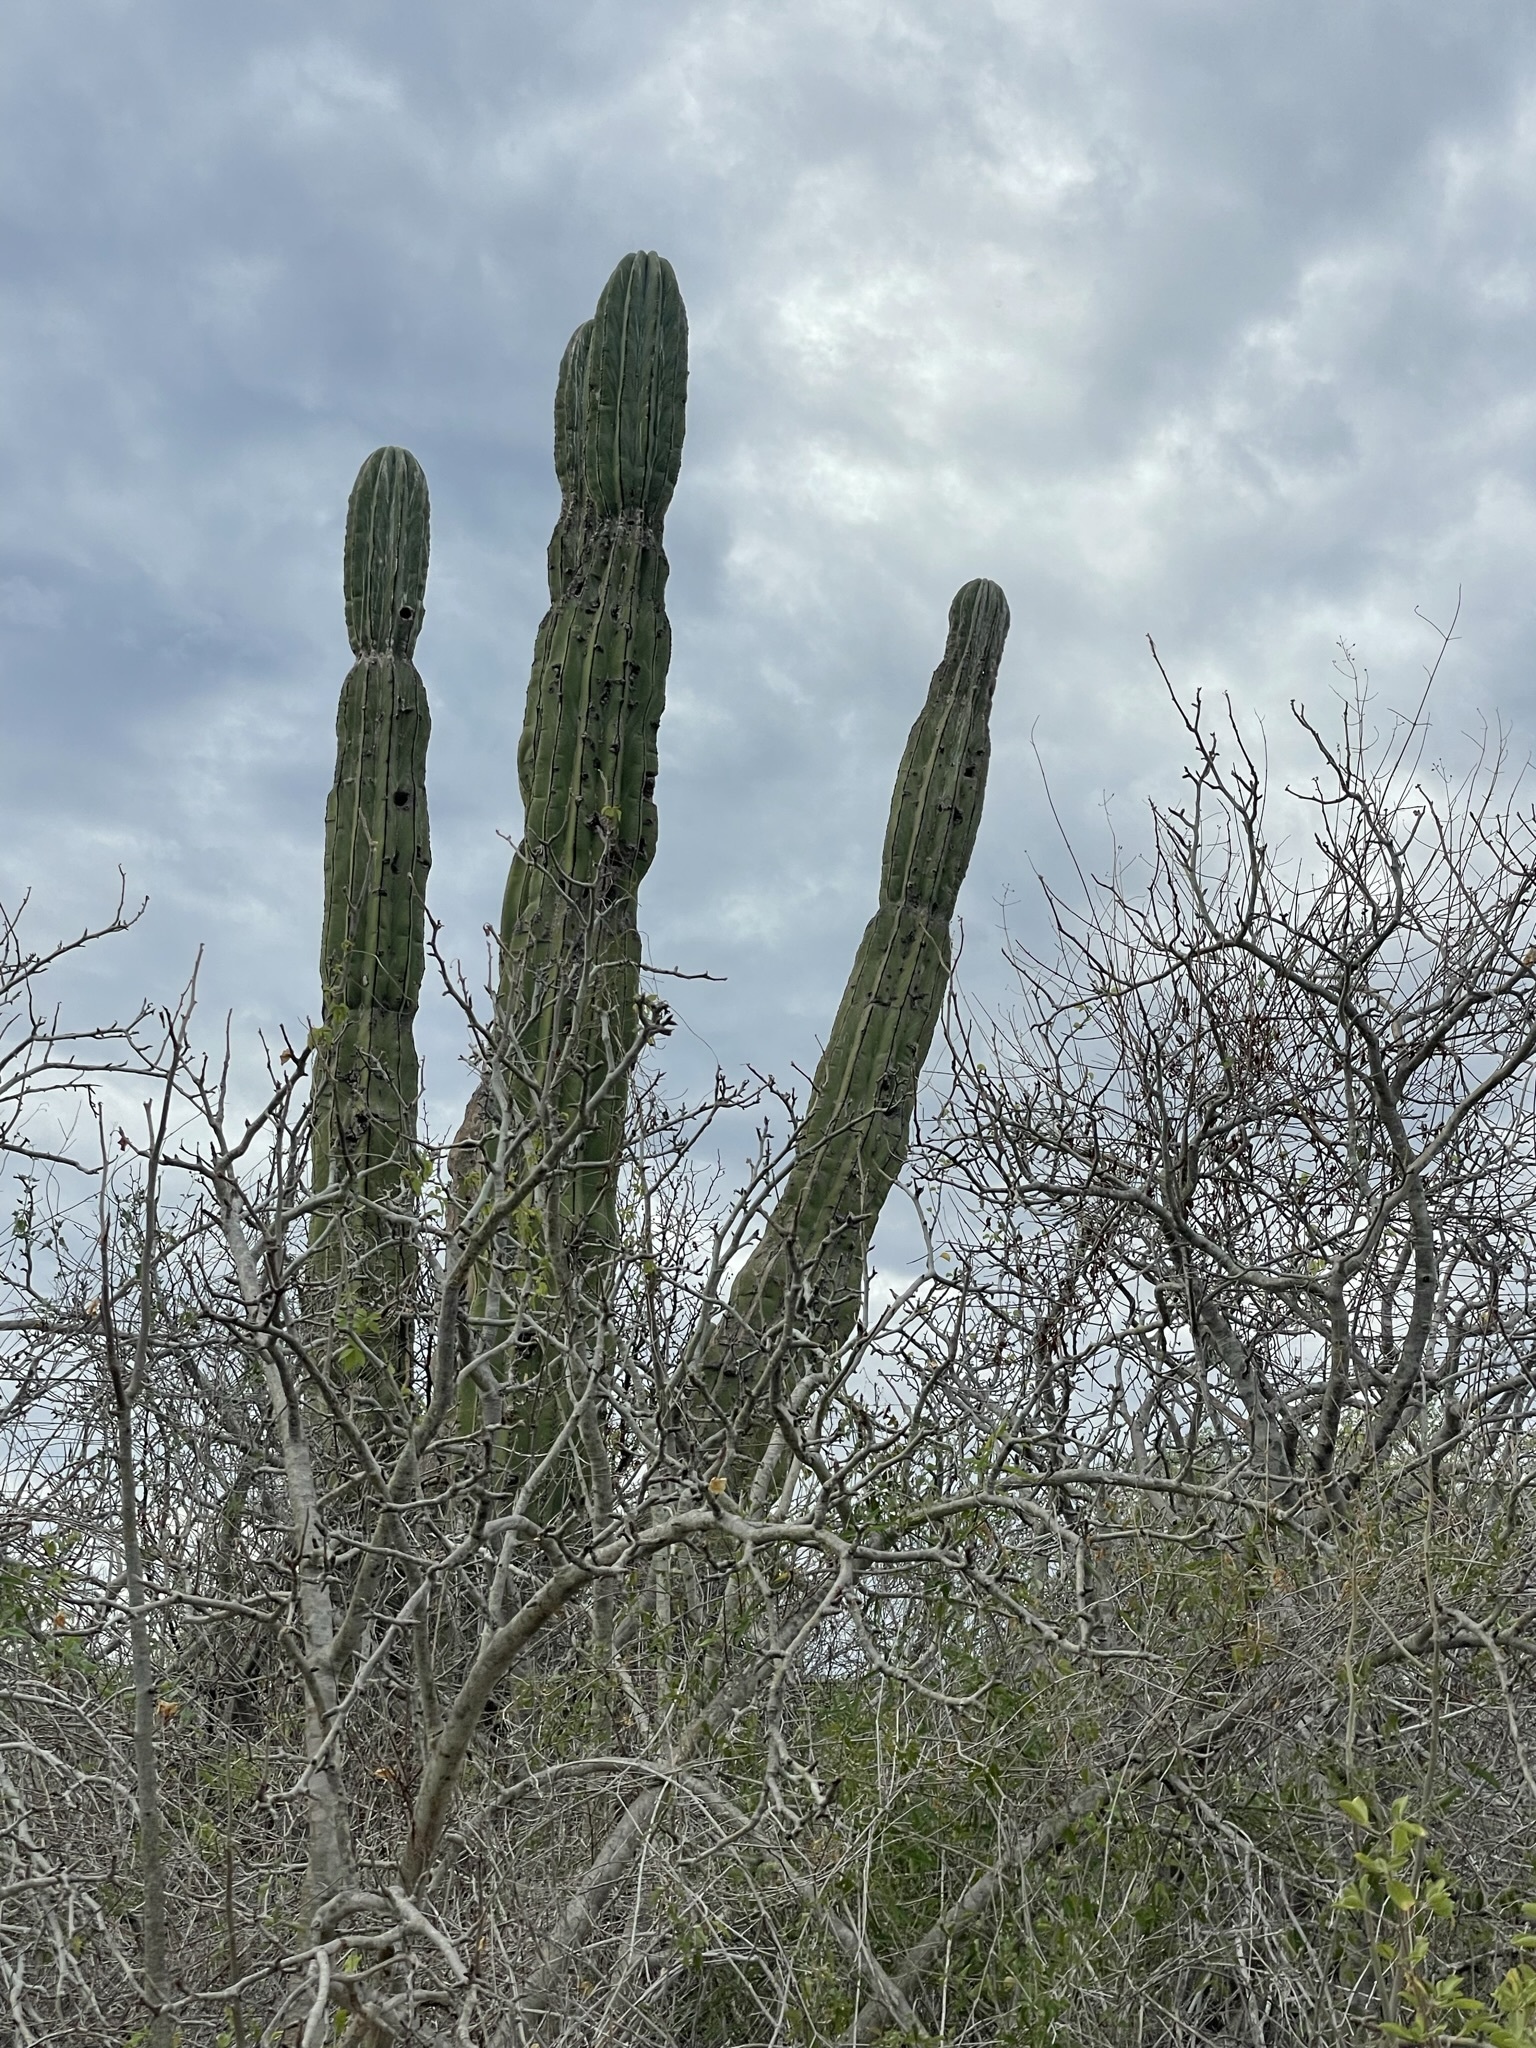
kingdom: Plantae
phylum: Tracheophyta
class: Magnoliopsida
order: Caryophyllales
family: Cactaceae
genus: Pachycereus
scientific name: Pachycereus pringlei
